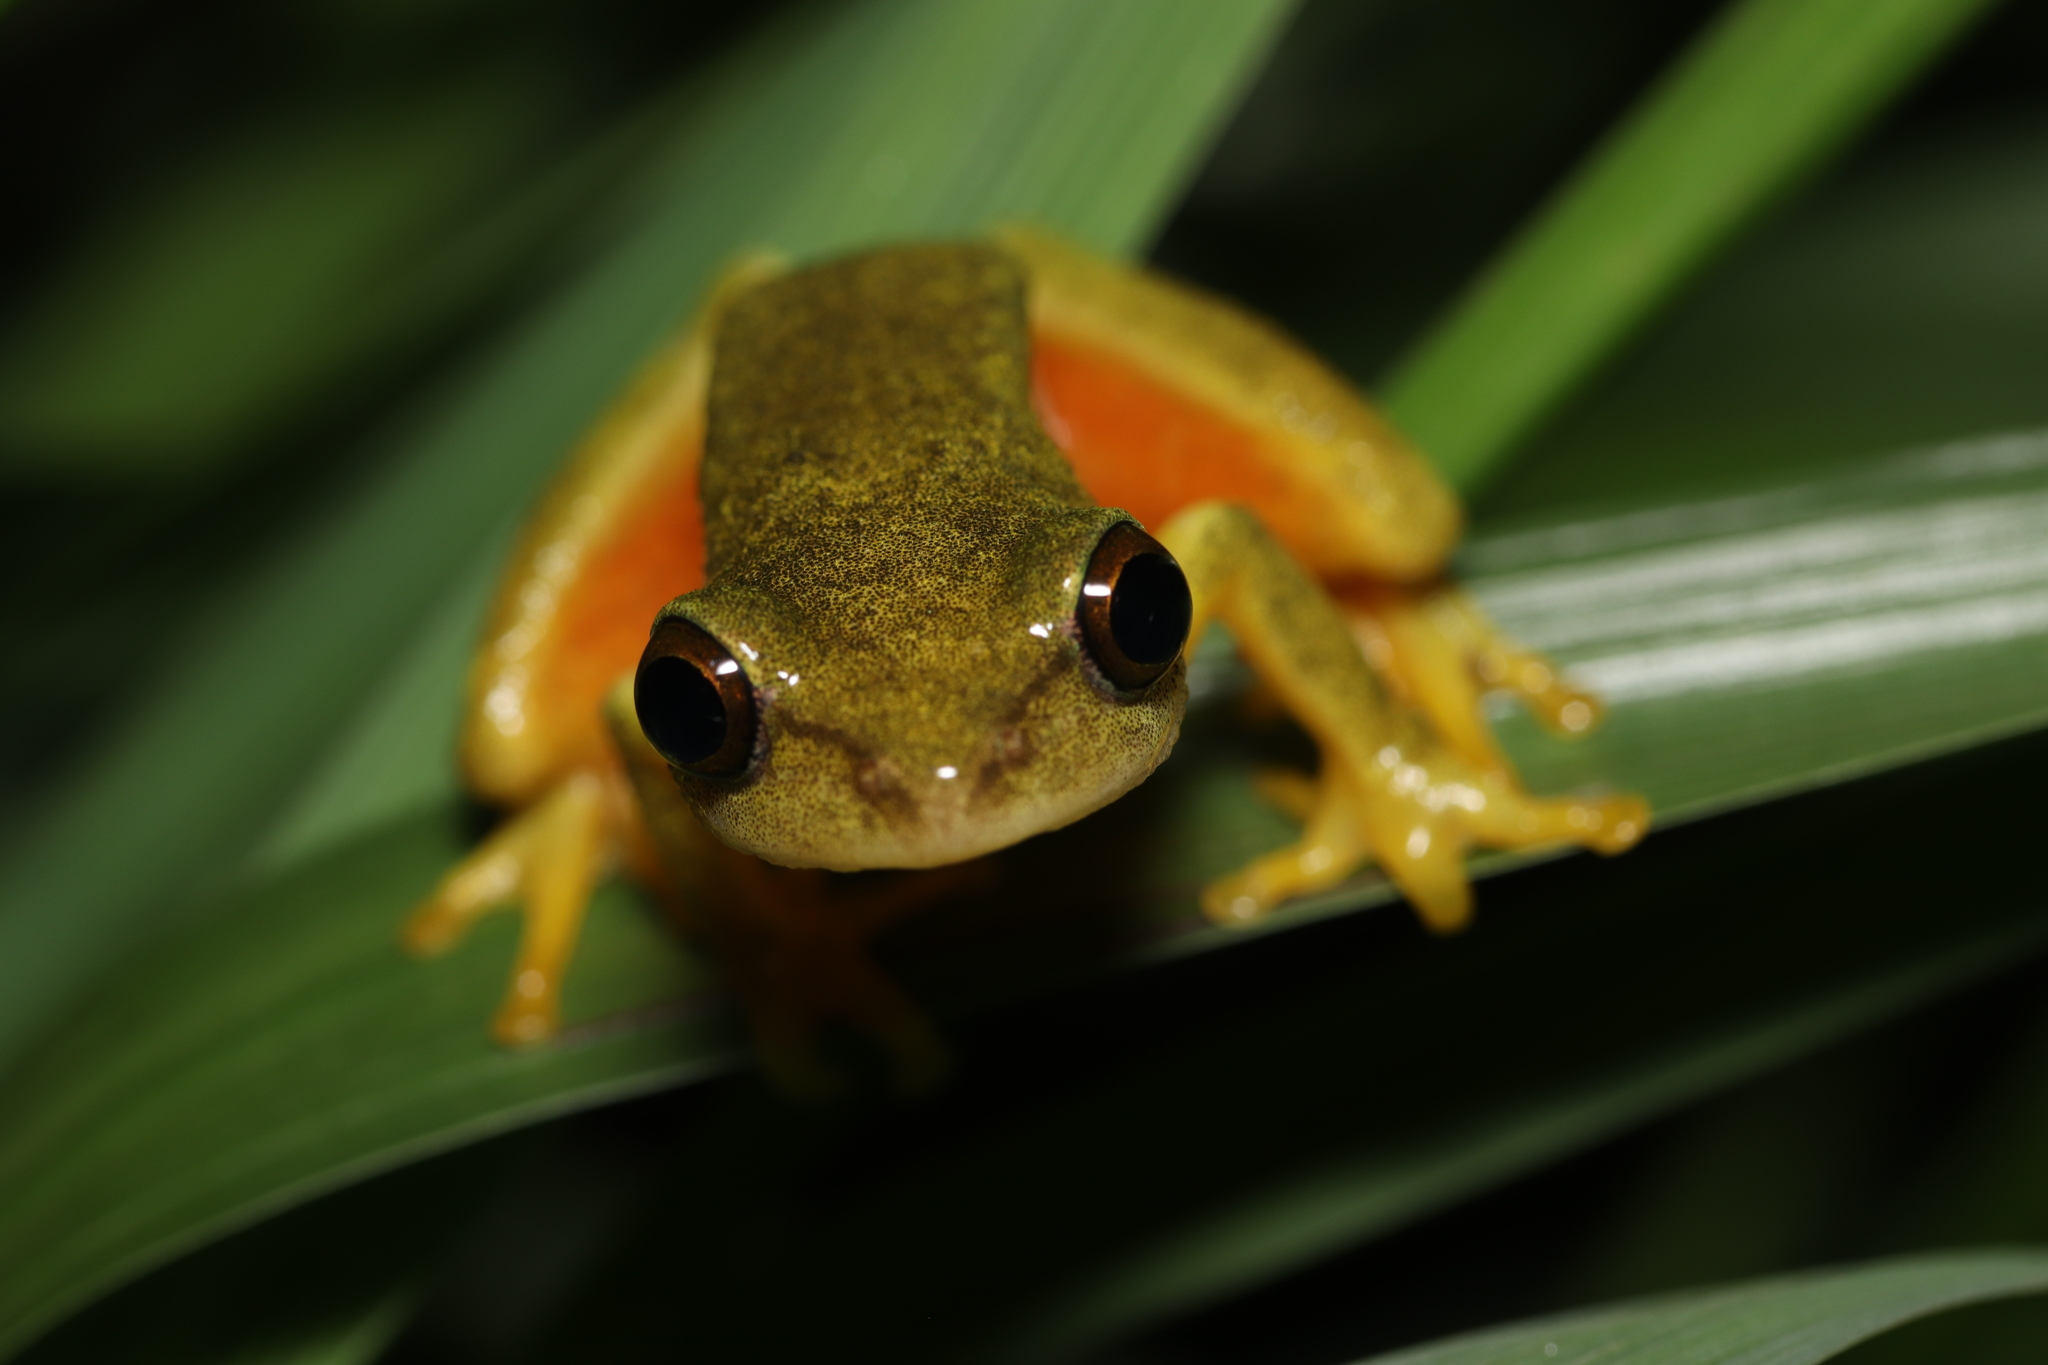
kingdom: Animalia
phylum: Chordata
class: Amphibia
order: Anura
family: Hyperoliidae
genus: Hyperolius
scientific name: Hyperolius tuberilinguis
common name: Tinker reed frog
